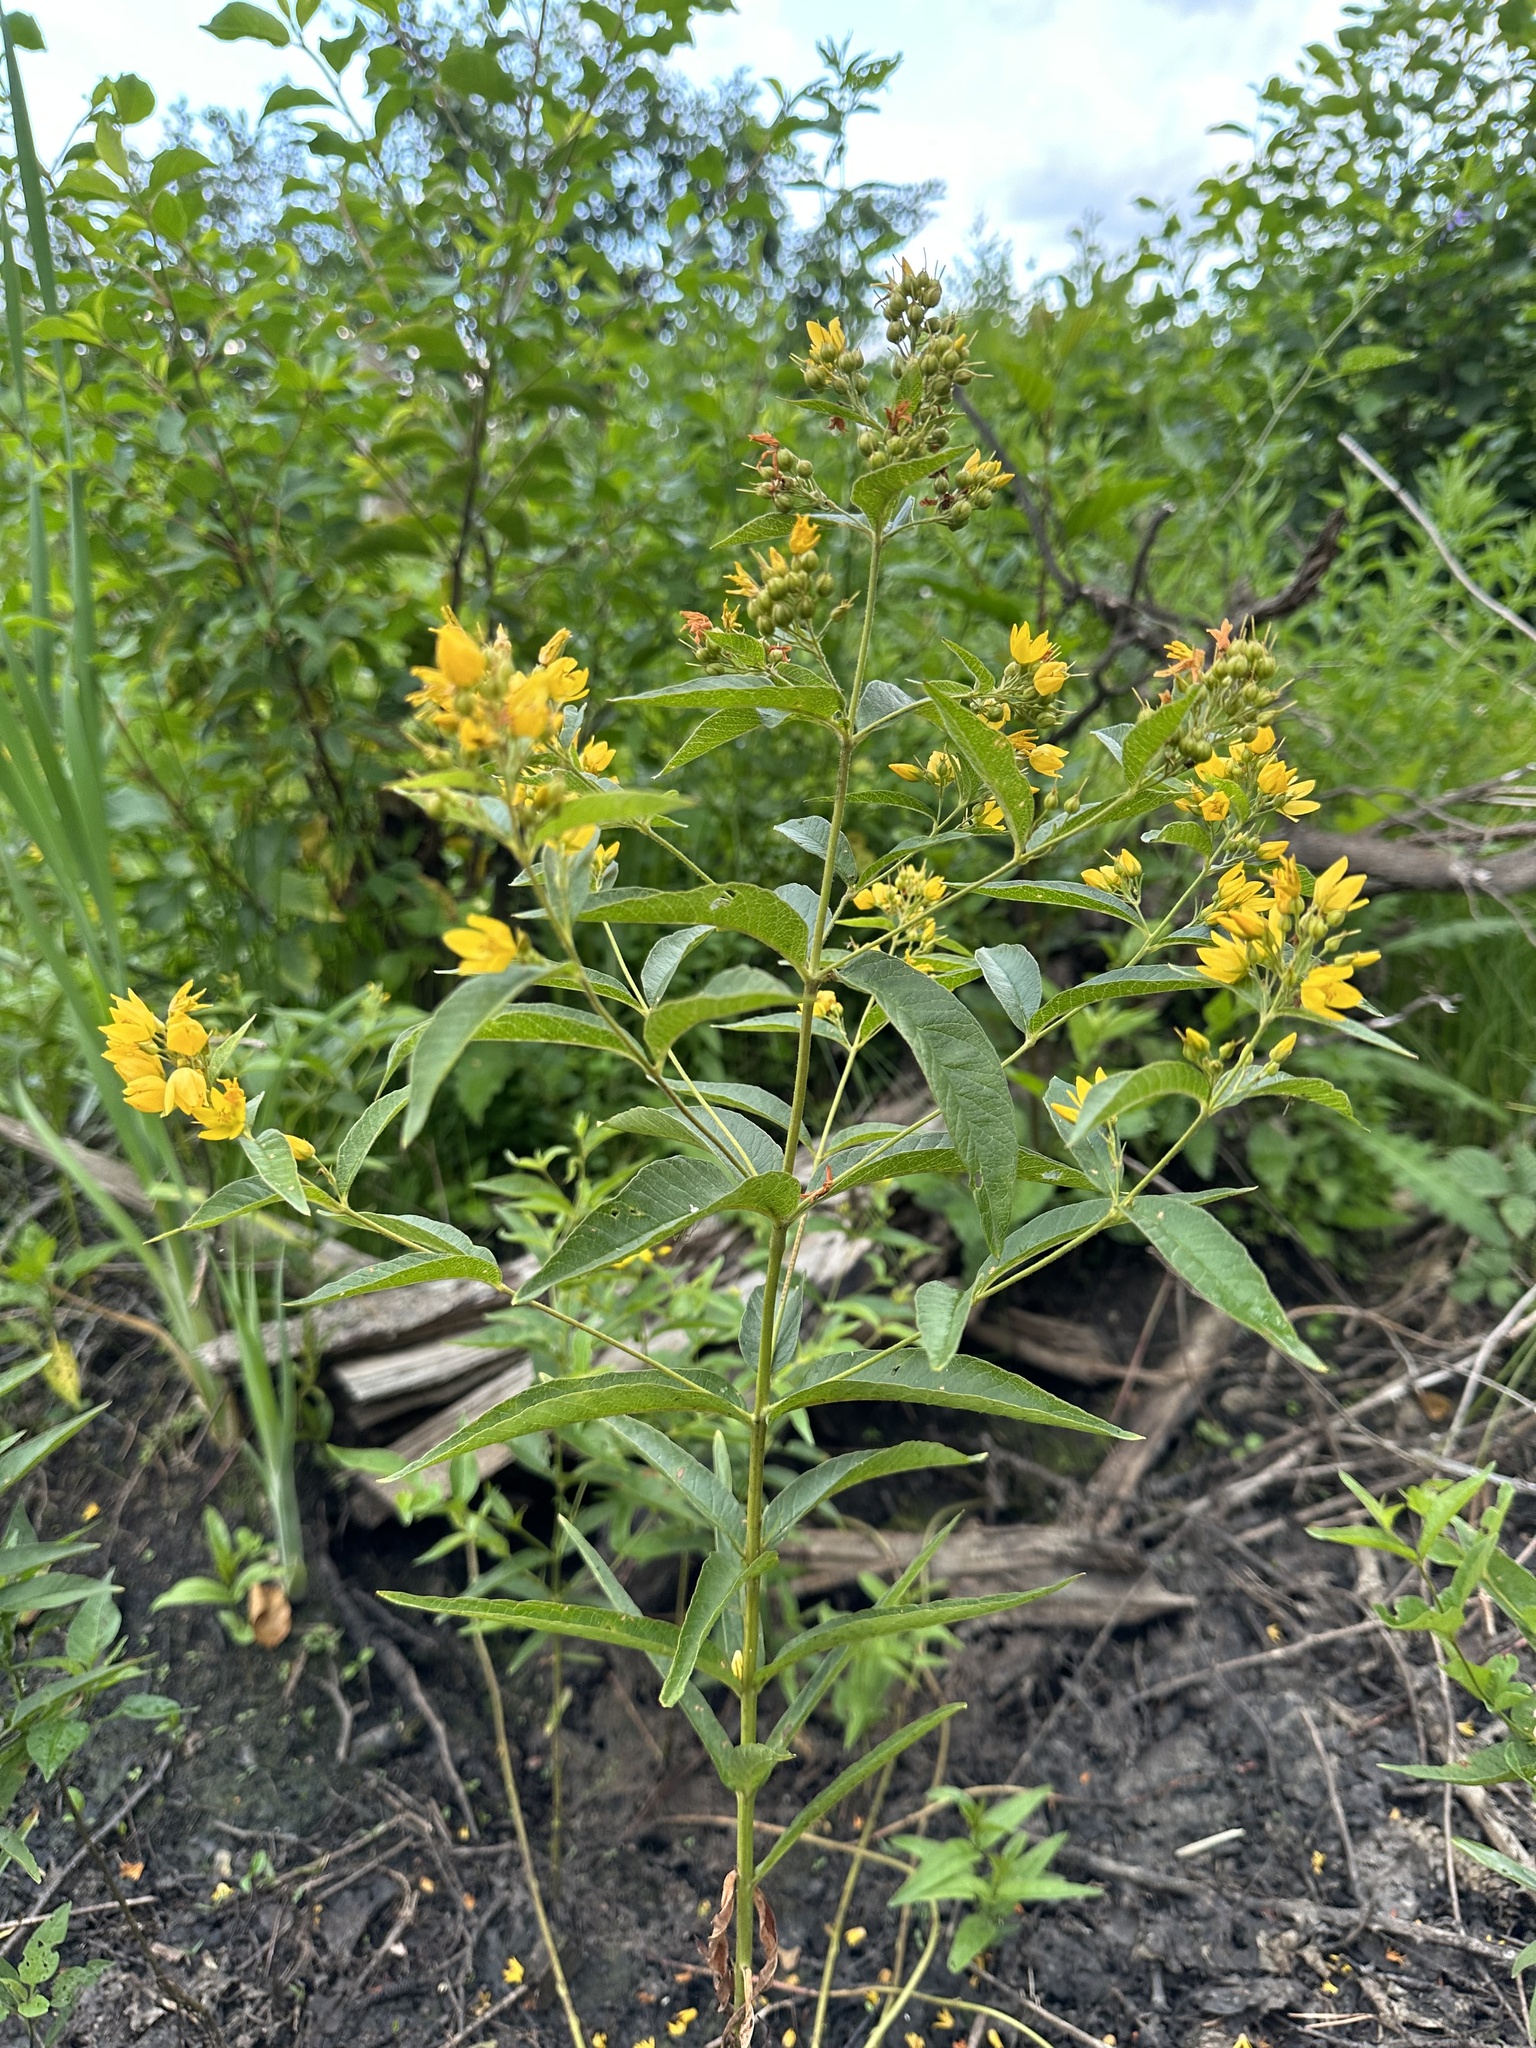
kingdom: Plantae
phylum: Tracheophyta
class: Magnoliopsida
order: Ericales
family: Primulaceae
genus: Lysimachia
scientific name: Lysimachia vulgaris
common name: Yellow loosestrife
